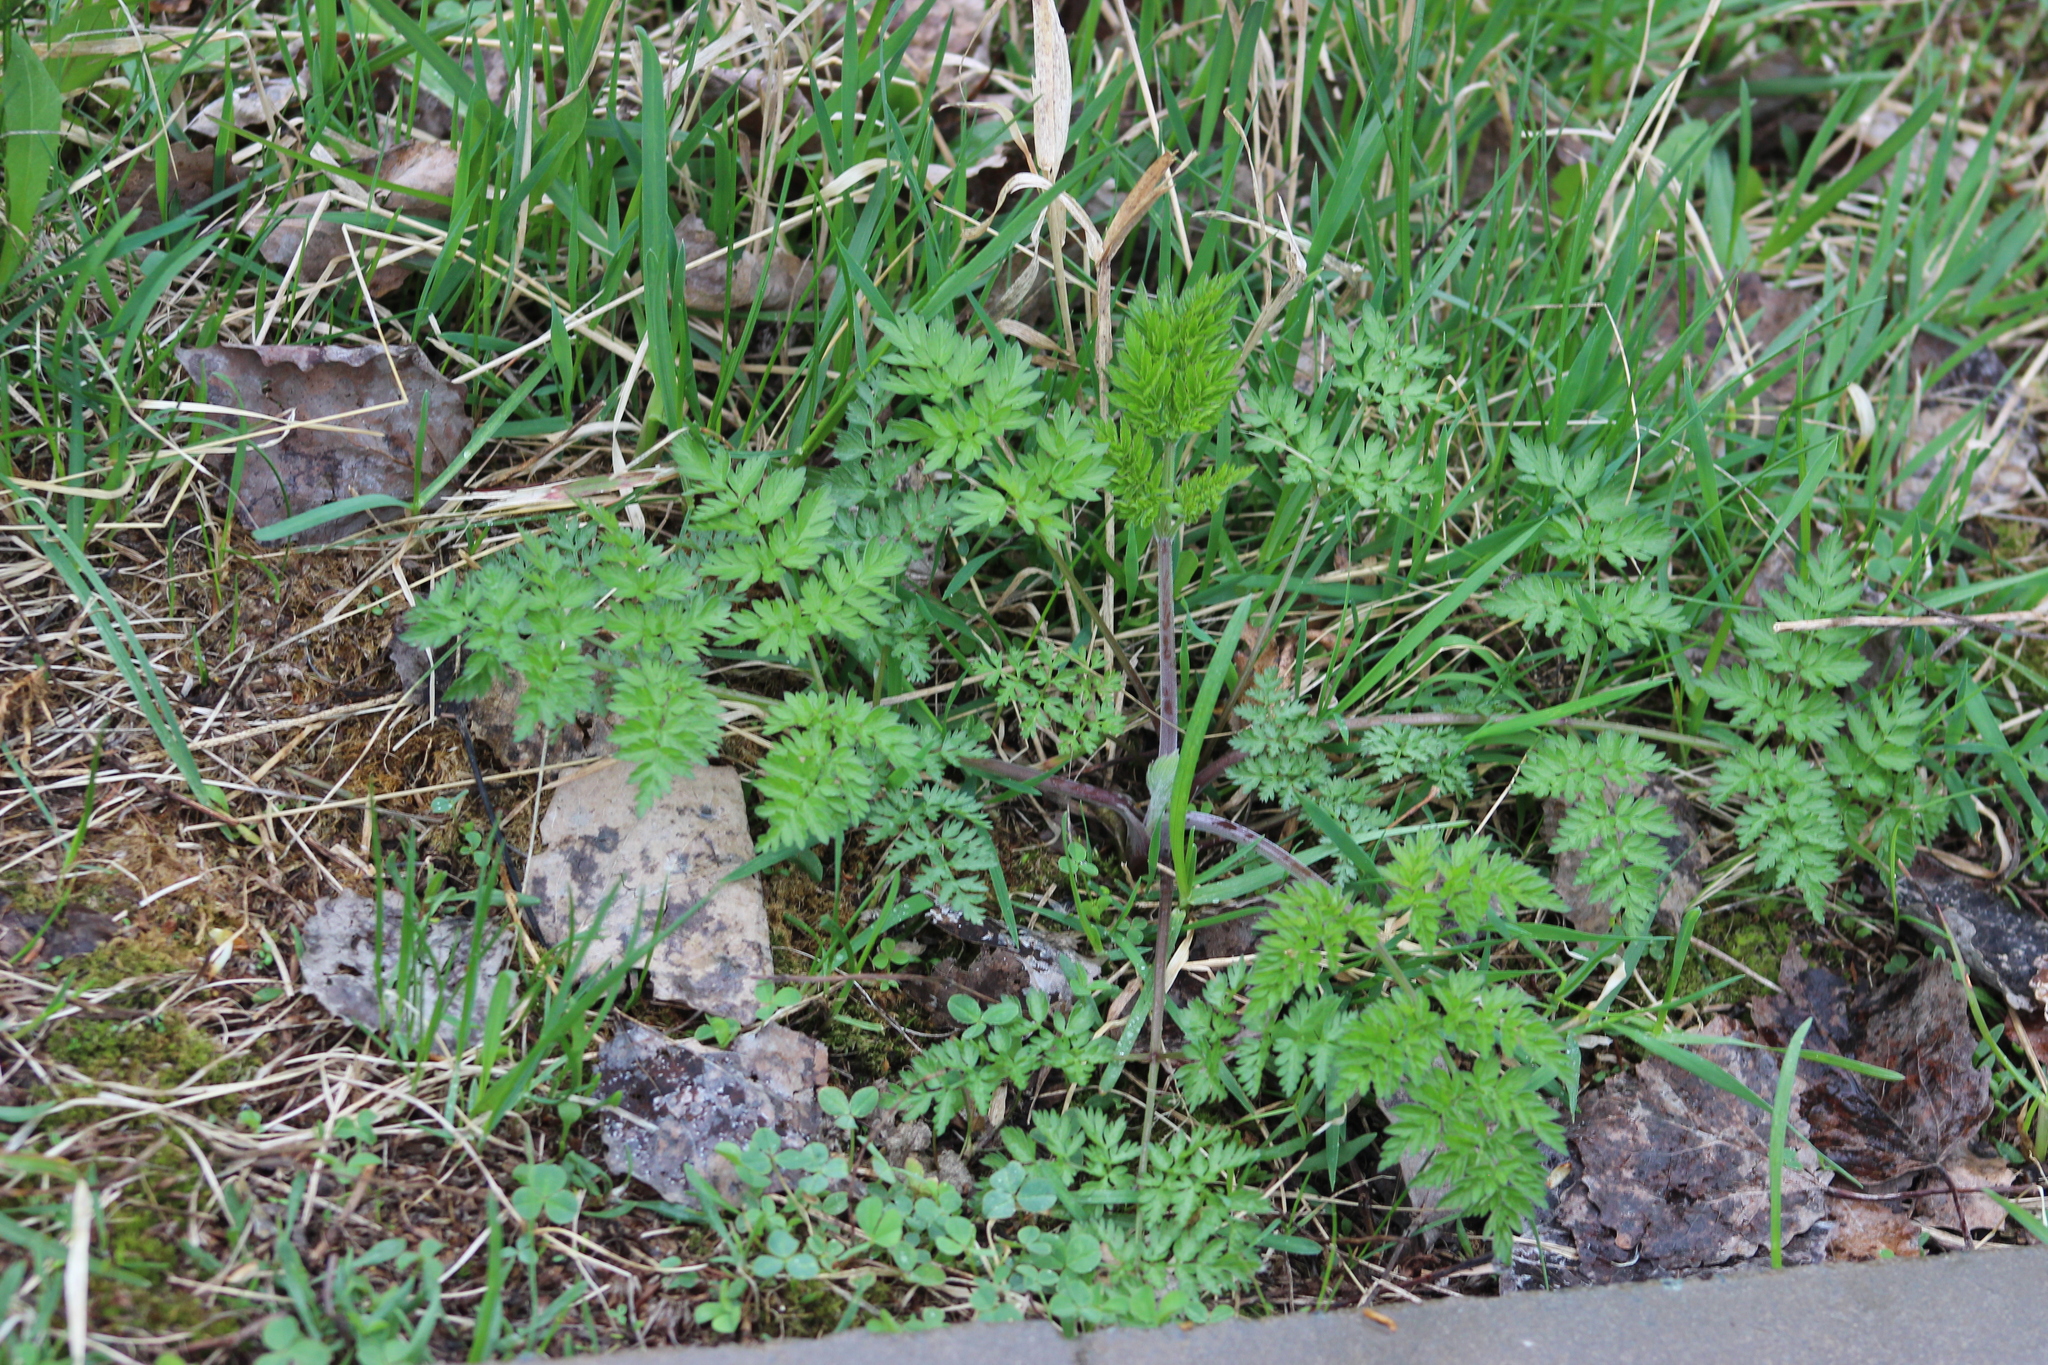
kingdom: Plantae
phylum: Tracheophyta
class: Magnoliopsida
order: Apiales
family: Apiaceae
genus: Anthriscus
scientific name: Anthriscus sylvestris
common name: Cow parsley
